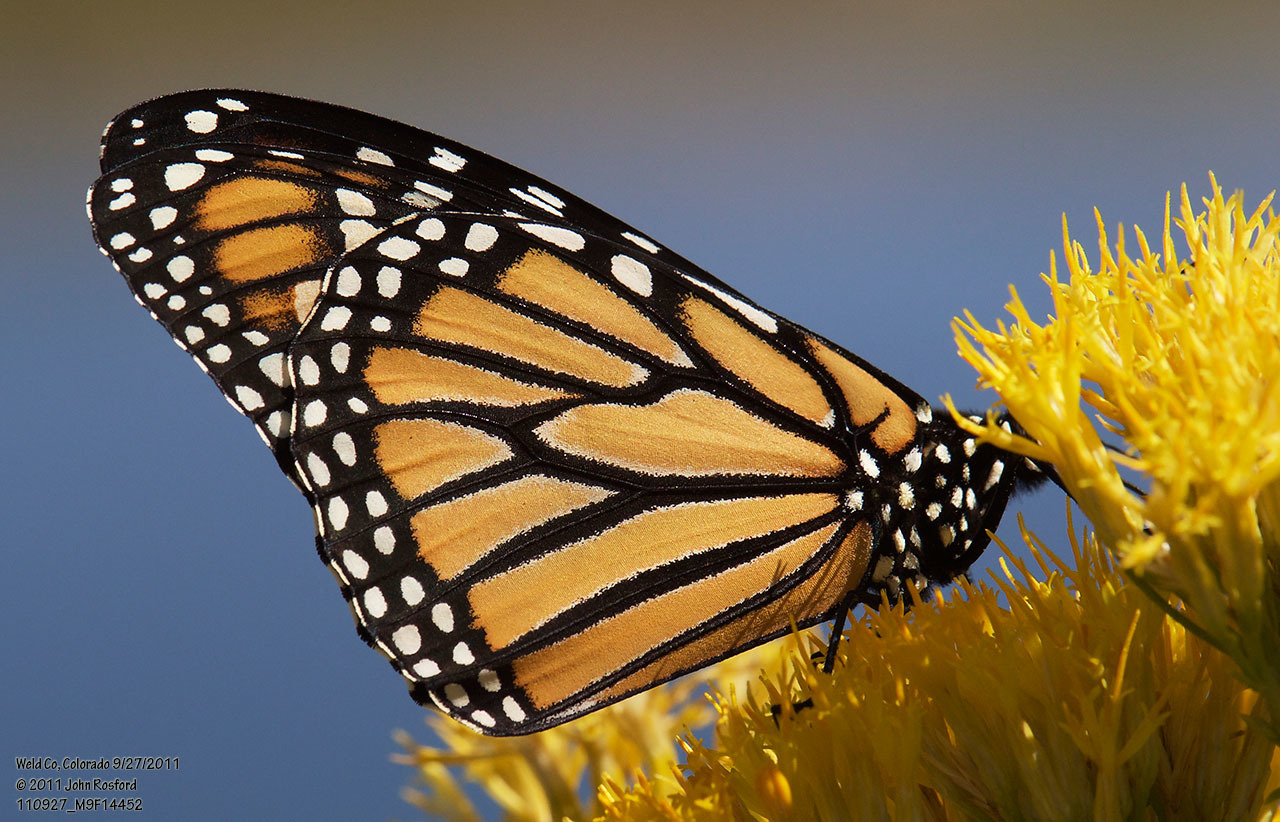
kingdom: Animalia
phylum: Arthropoda
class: Insecta
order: Lepidoptera
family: Nymphalidae
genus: Danaus
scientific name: Danaus plexippus
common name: Monarch
